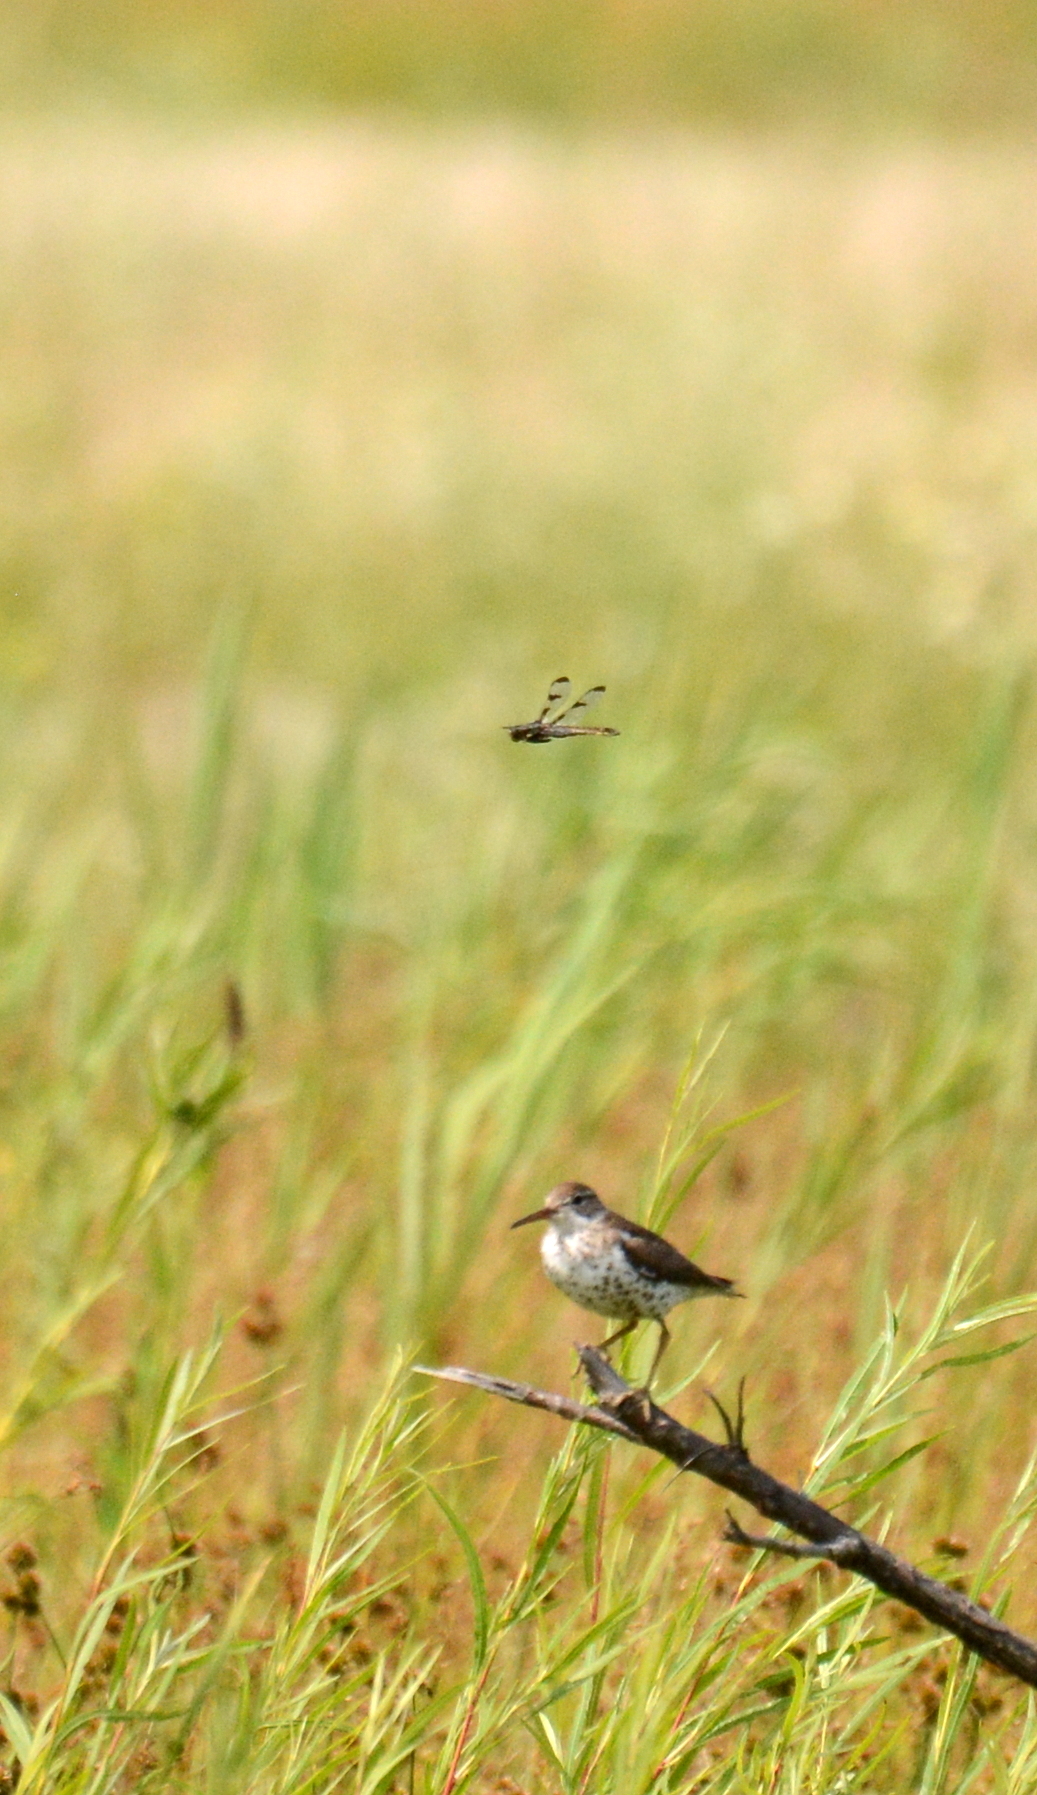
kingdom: Animalia
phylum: Arthropoda
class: Insecta
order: Odonata
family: Libellulidae
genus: Libellula
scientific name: Libellula pulchella
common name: Twelve-spotted skimmer
